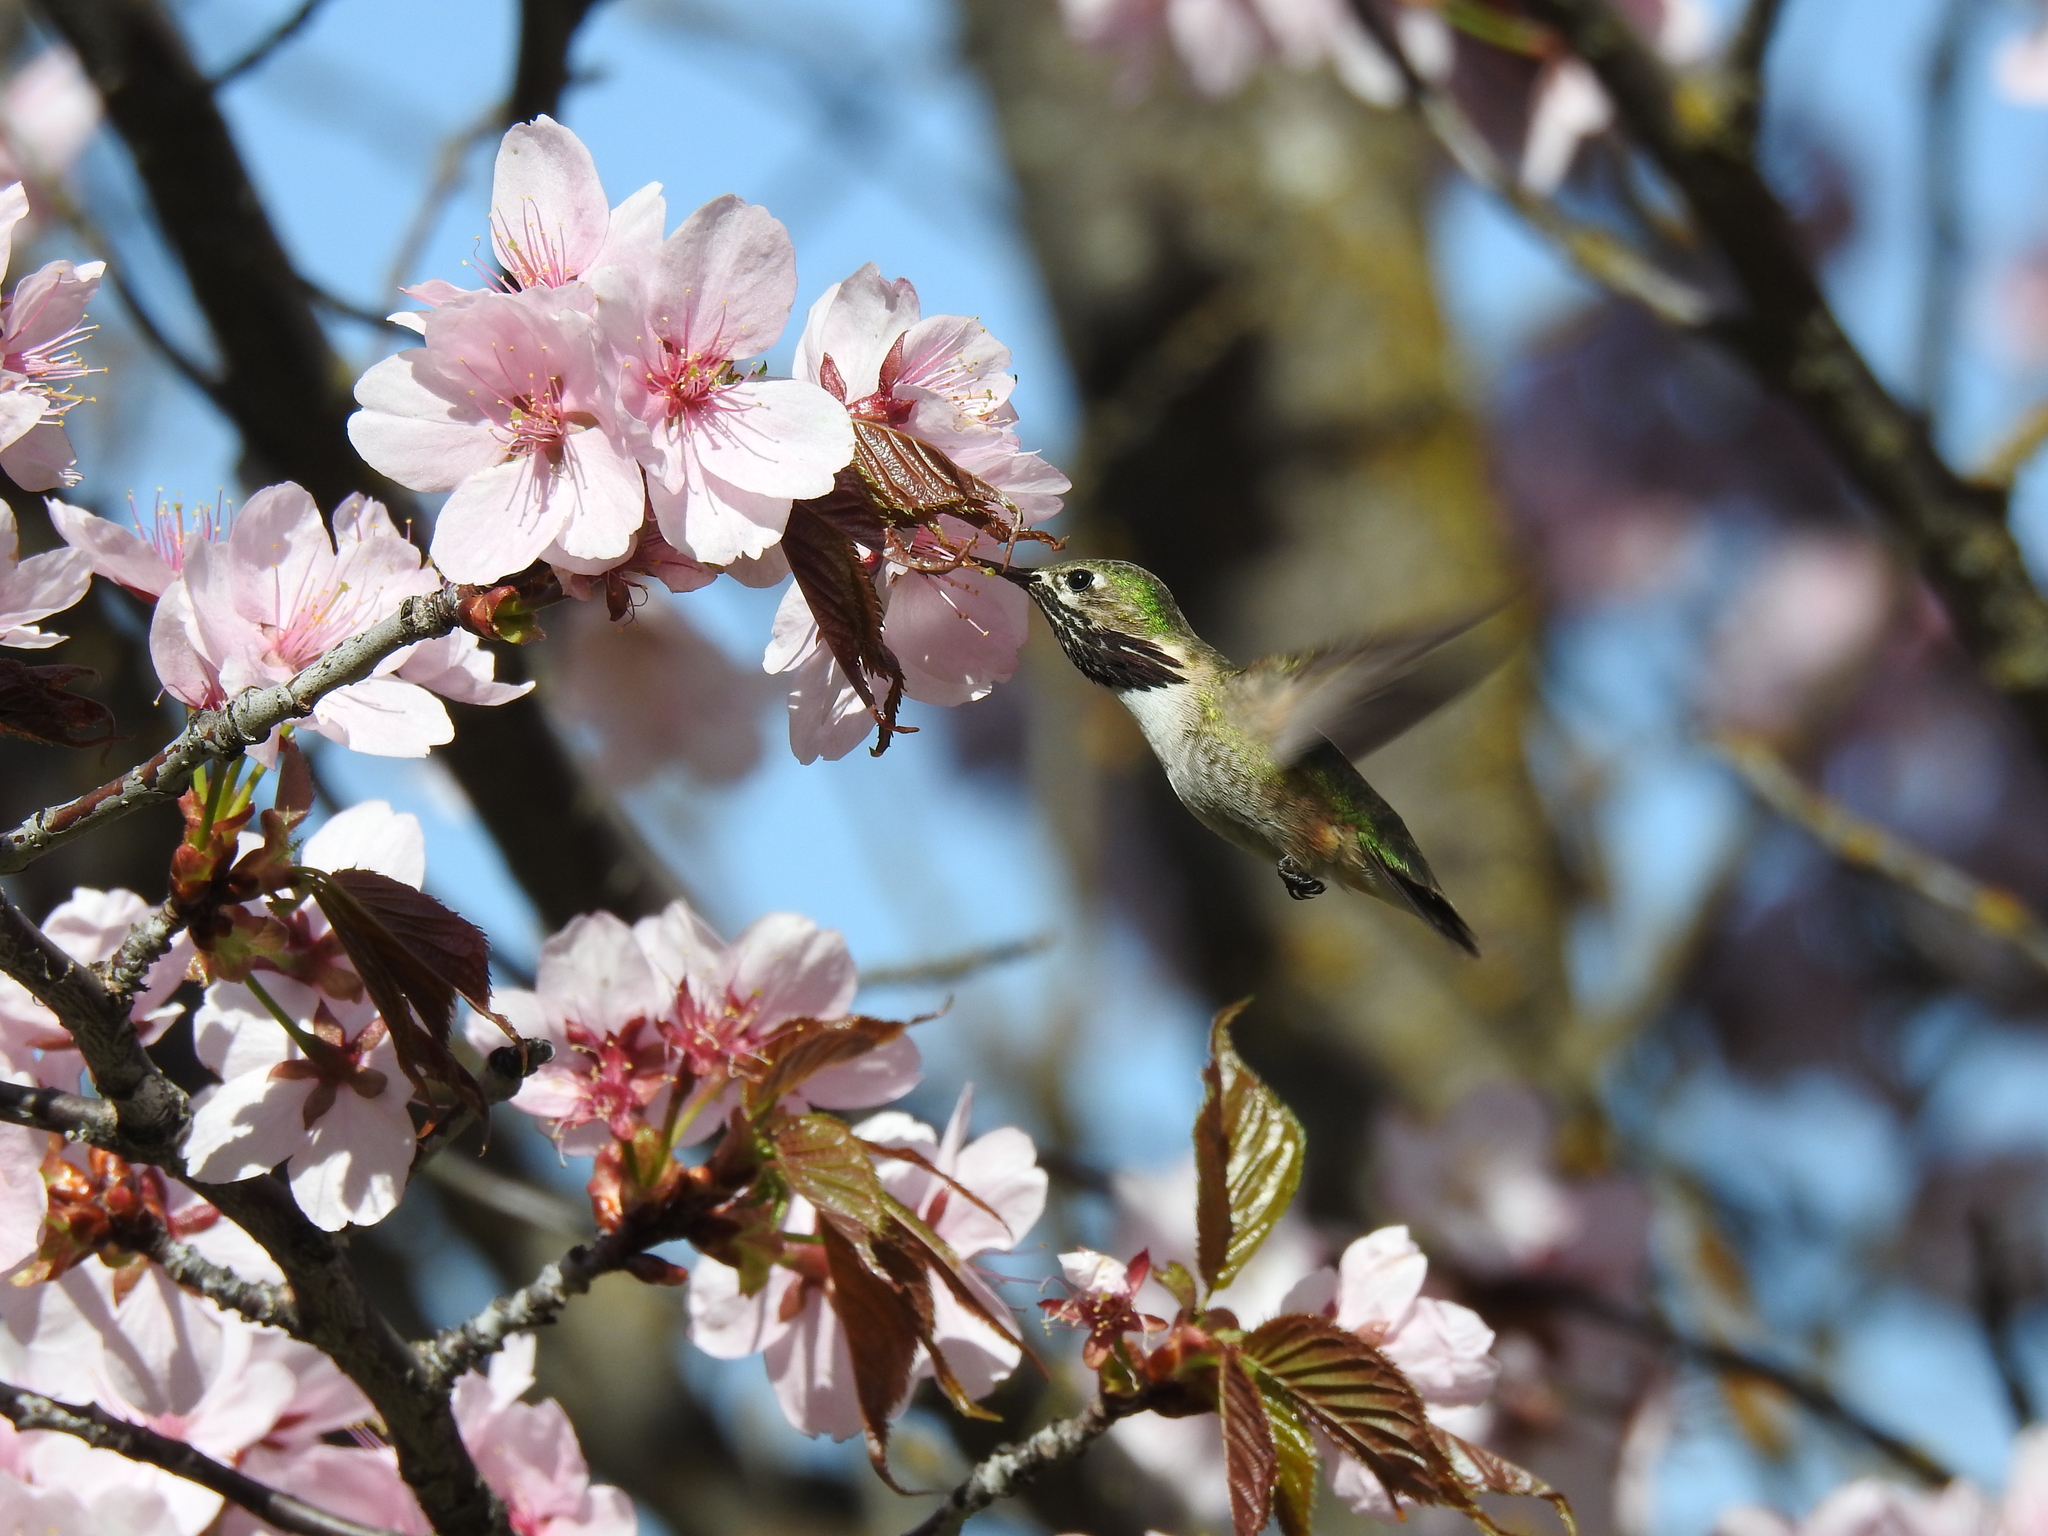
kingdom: Animalia
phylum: Chordata
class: Aves
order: Apodiformes
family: Trochilidae
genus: Selasphorus
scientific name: Selasphorus calliope
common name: Calliope hummingbird
